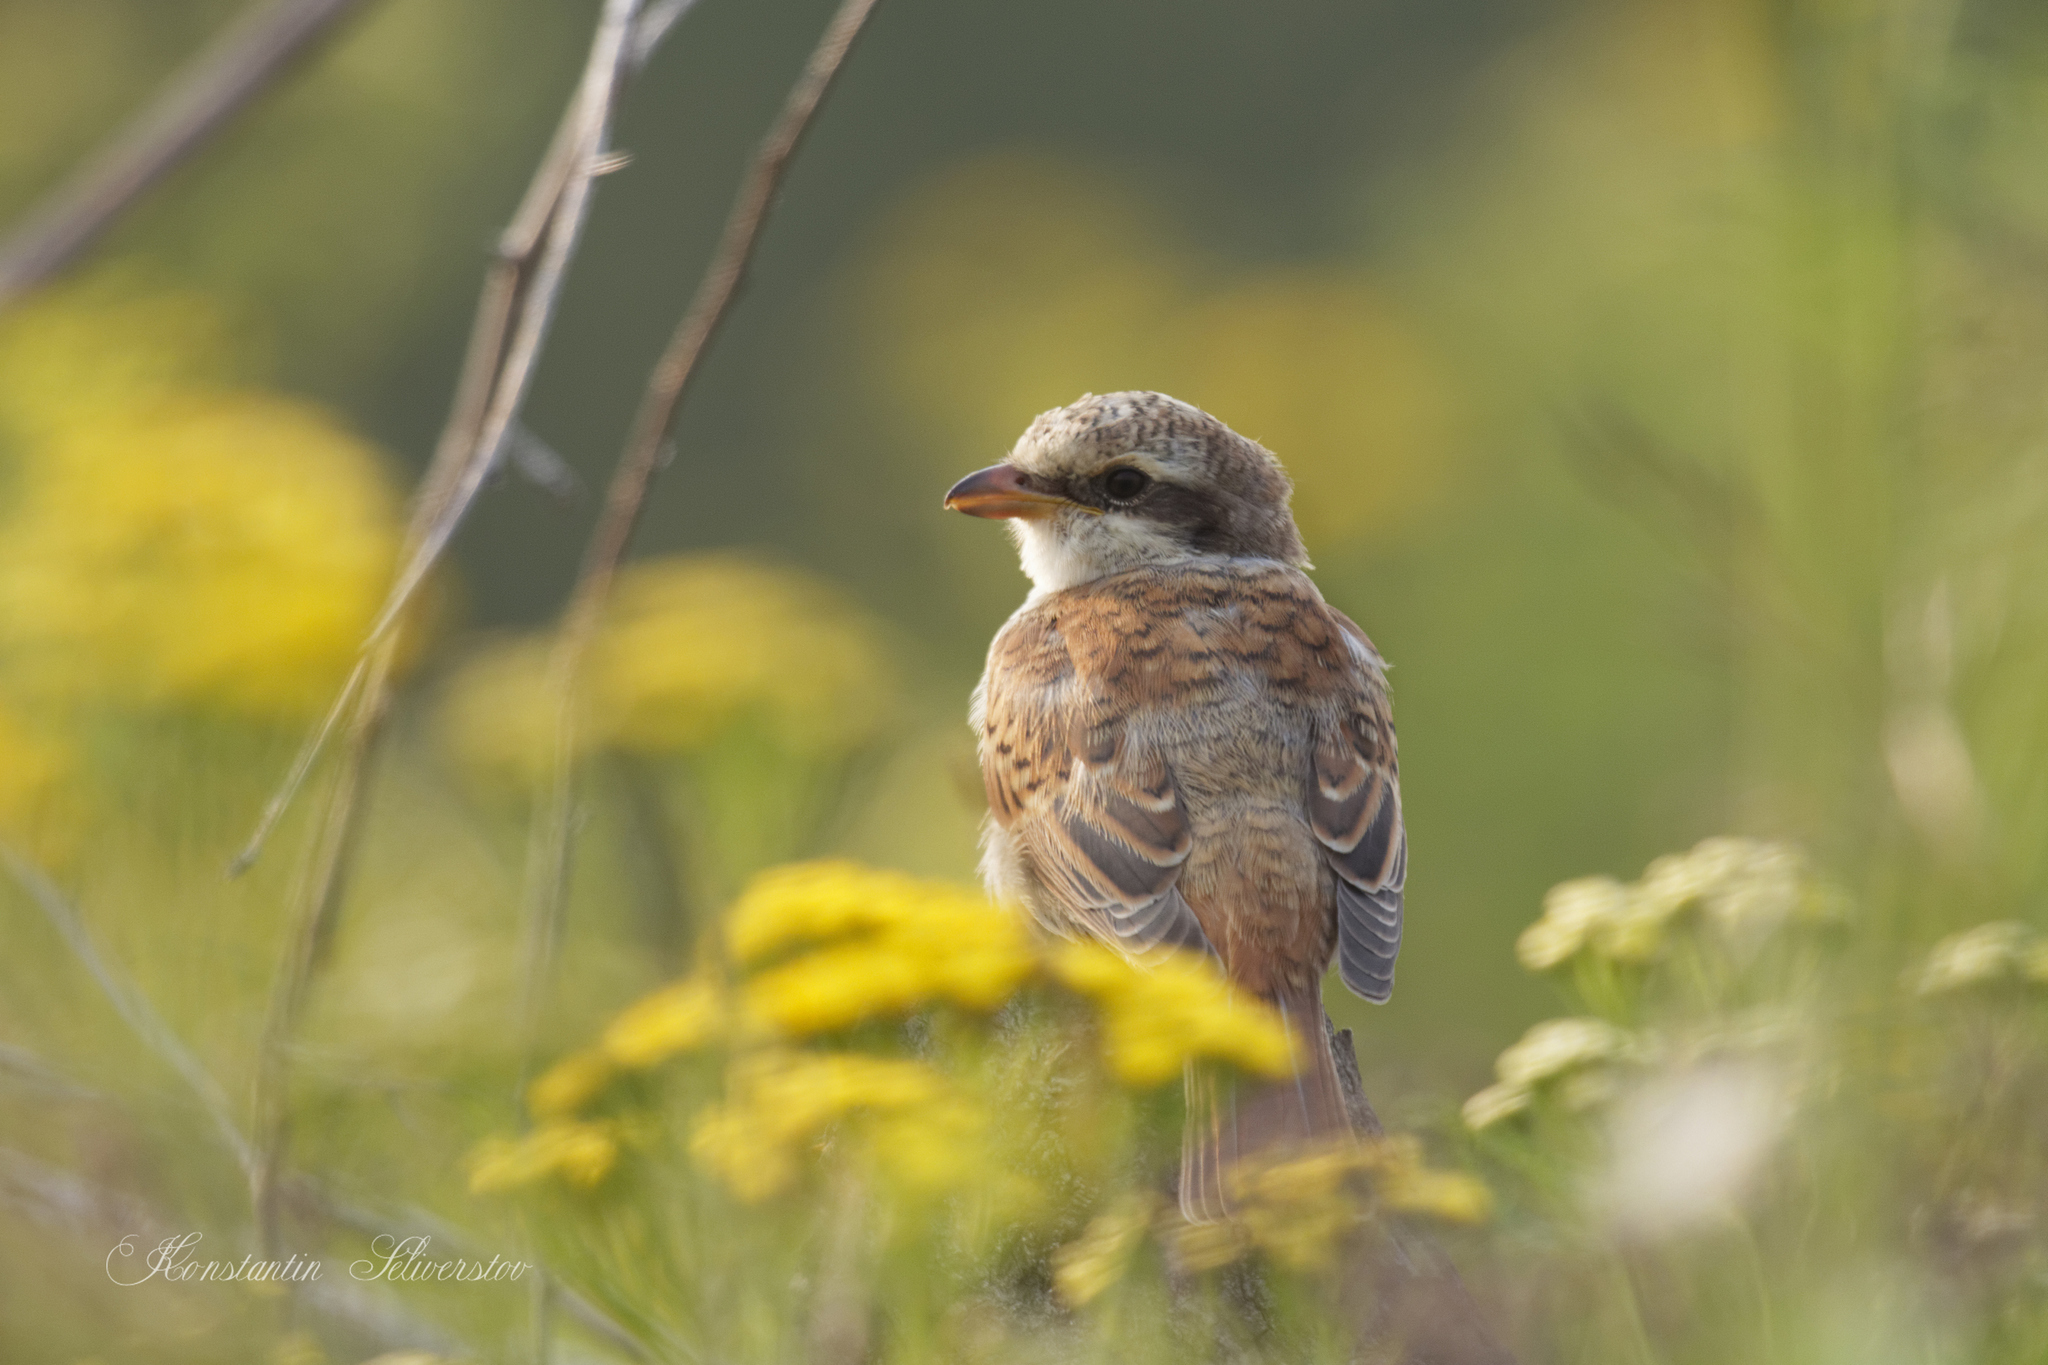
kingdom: Animalia
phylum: Chordata
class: Aves
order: Passeriformes
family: Laniidae
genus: Lanius
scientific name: Lanius collurio
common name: Red-backed shrike
